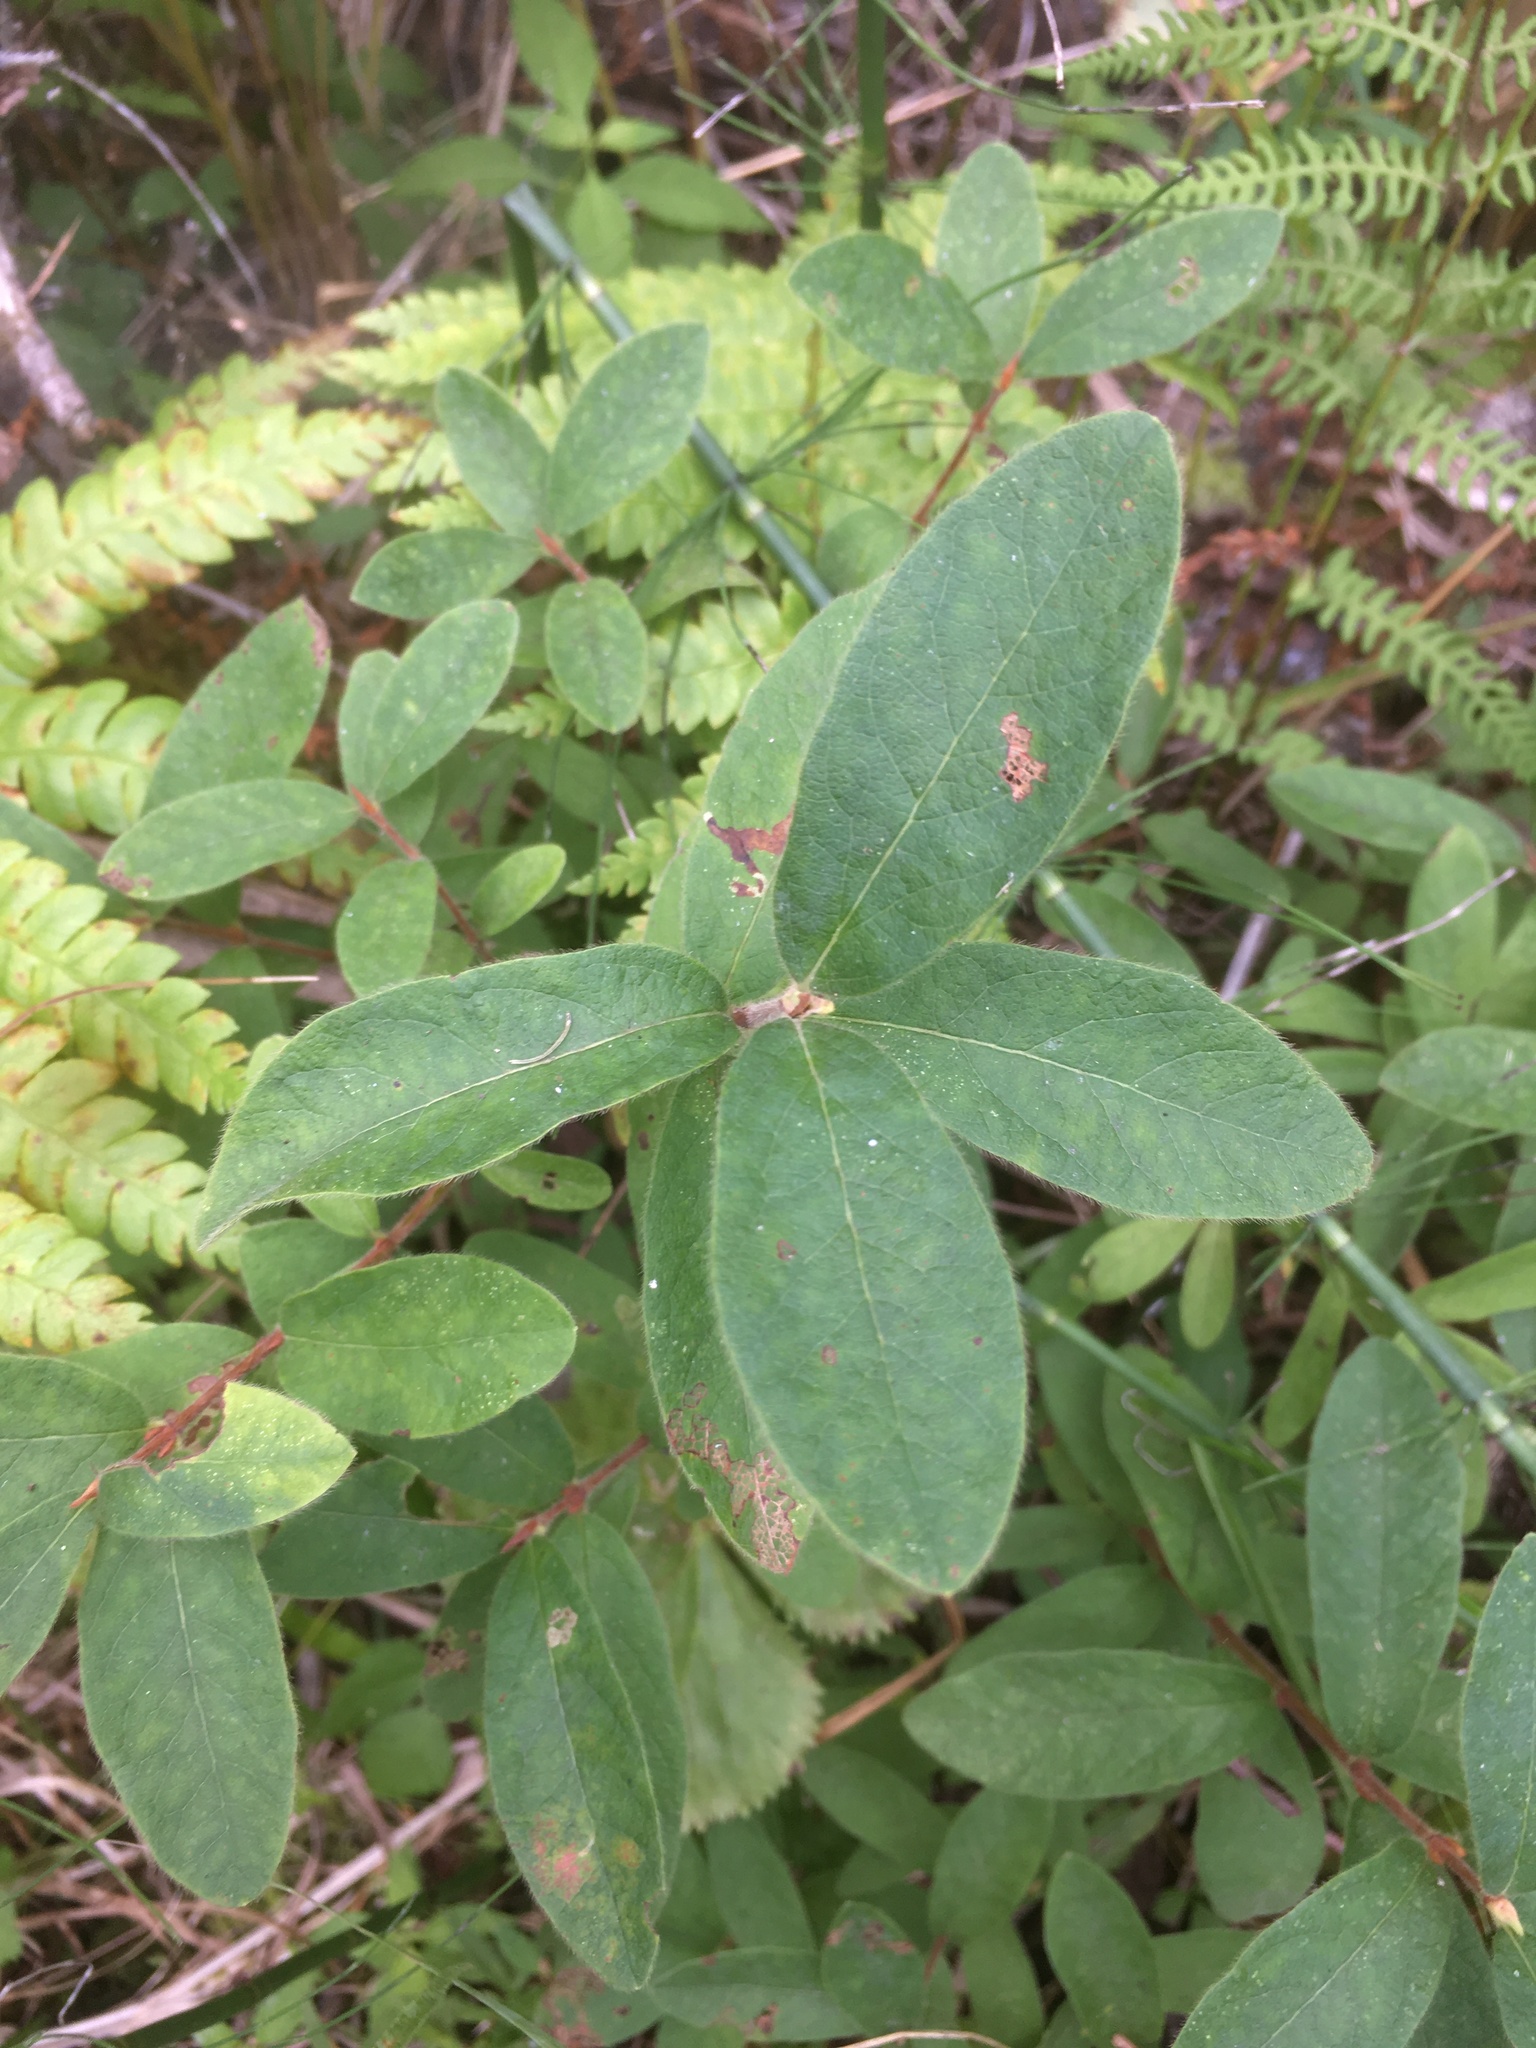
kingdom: Plantae
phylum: Tracheophyta
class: Magnoliopsida
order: Dipsacales
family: Caprifoliaceae
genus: Lonicera
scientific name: Lonicera villosa
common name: Mountain fly-honeysuckle
